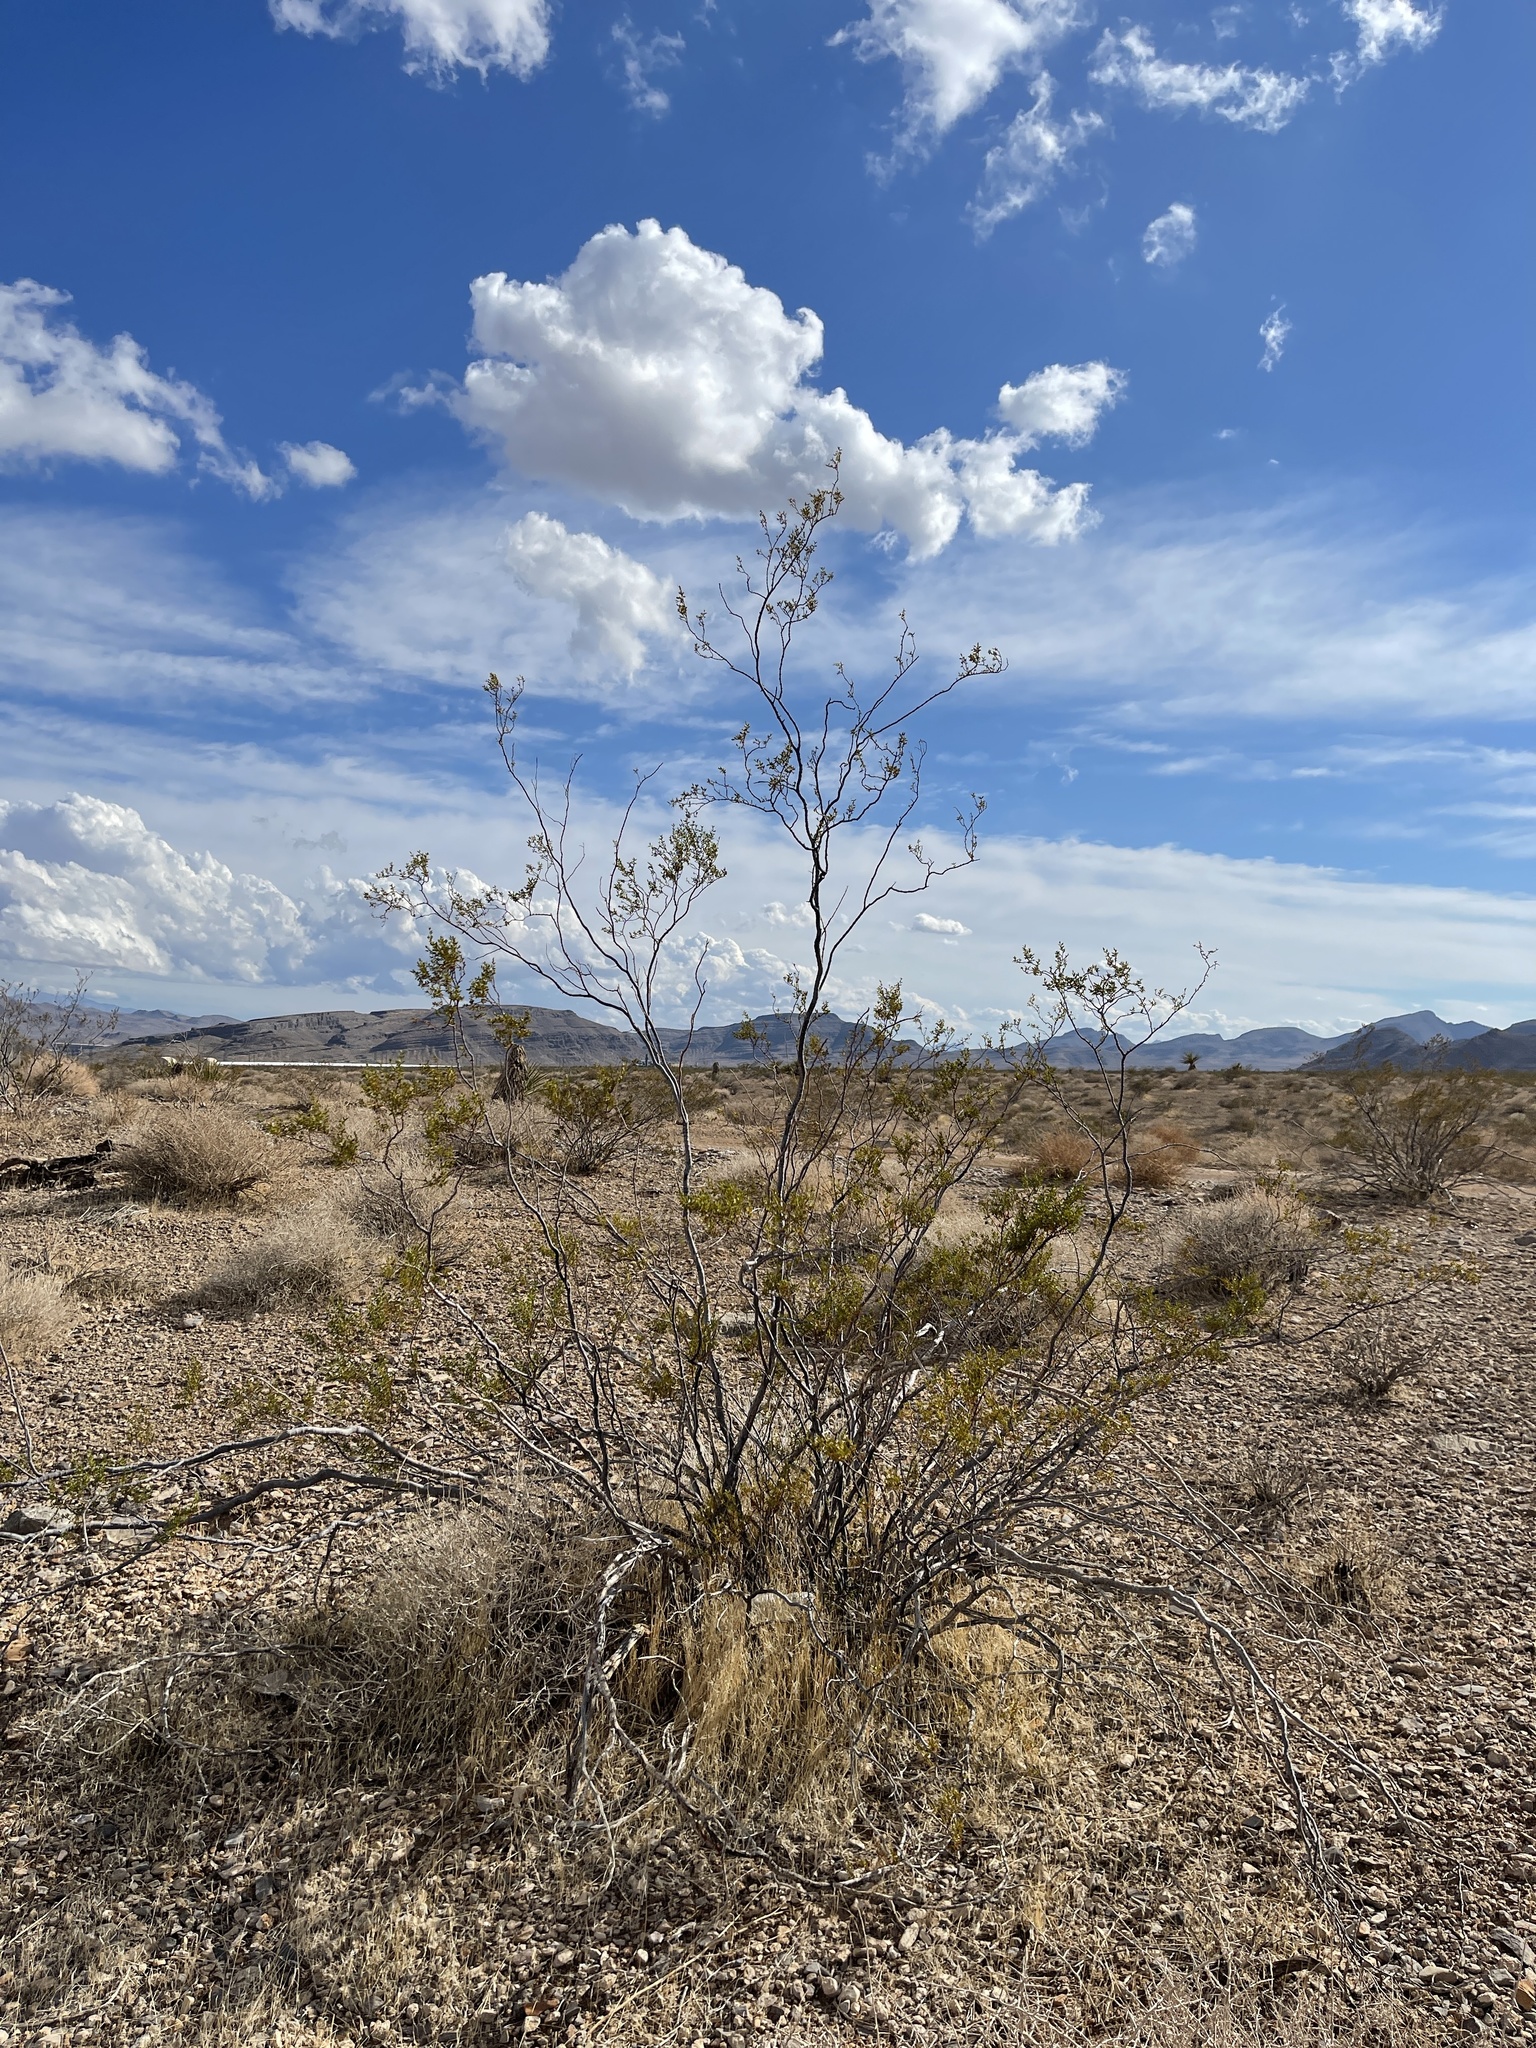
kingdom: Plantae
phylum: Tracheophyta
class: Magnoliopsida
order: Zygophyllales
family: Zygophyllaceae
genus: Larrea
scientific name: Larrea tridentata
